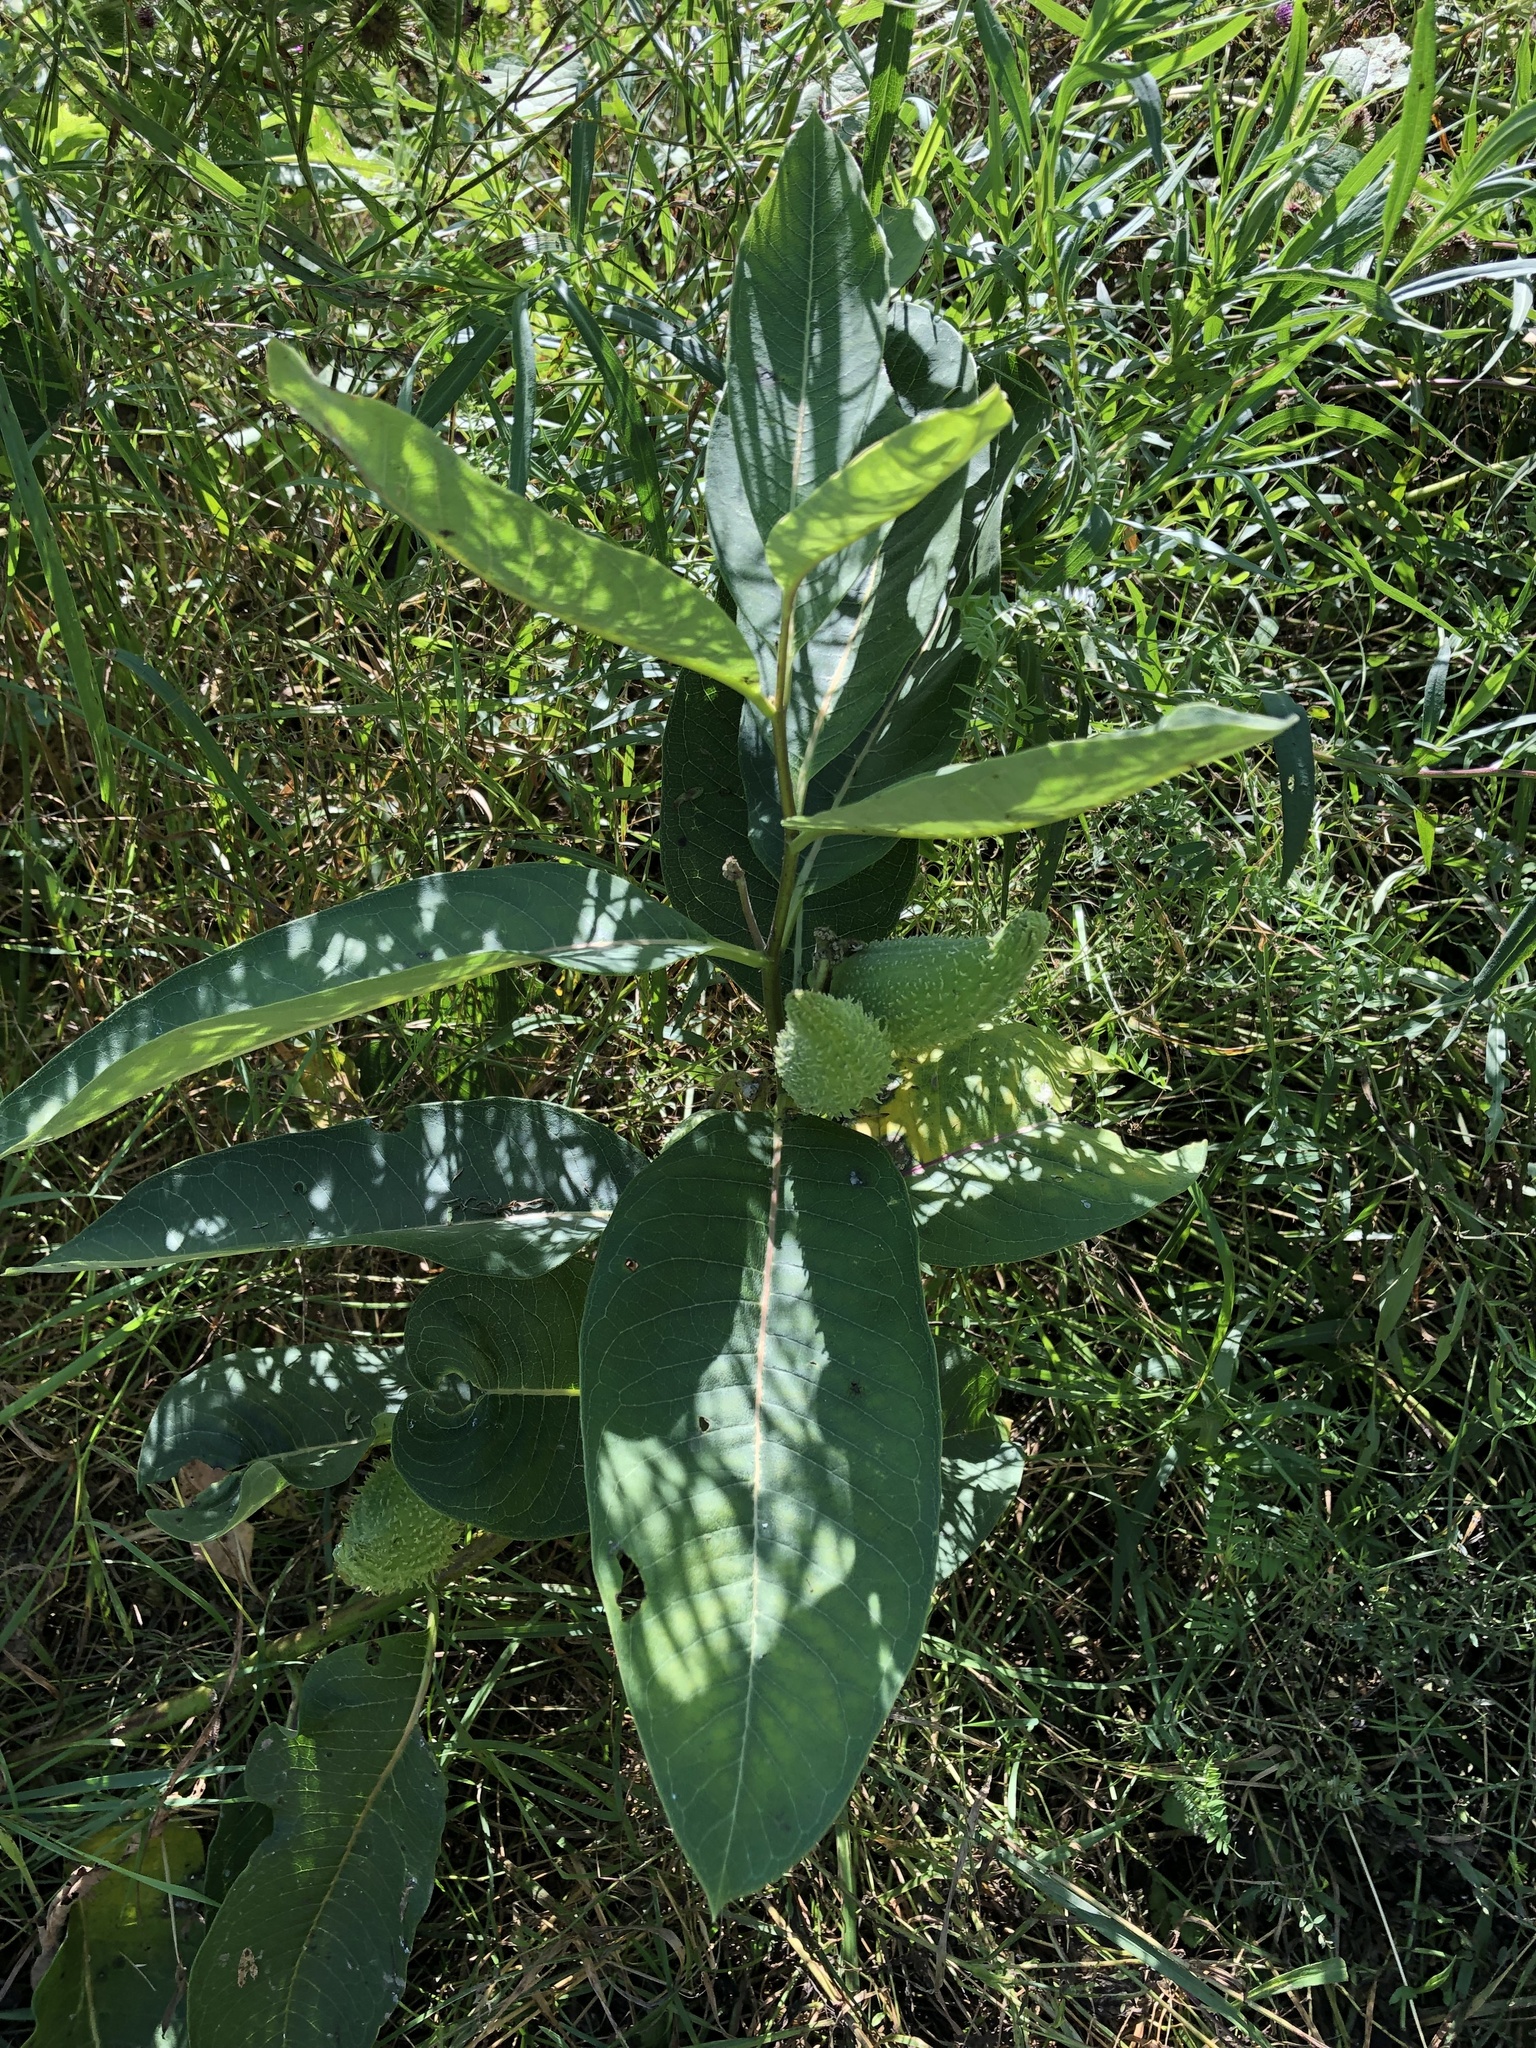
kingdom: Plantae
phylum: Tracheophyta
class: Magnoliopsida
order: Gentianales
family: Apocynaceae
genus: Asclepias
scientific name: Asclepias syriaca
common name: Common milkweed
